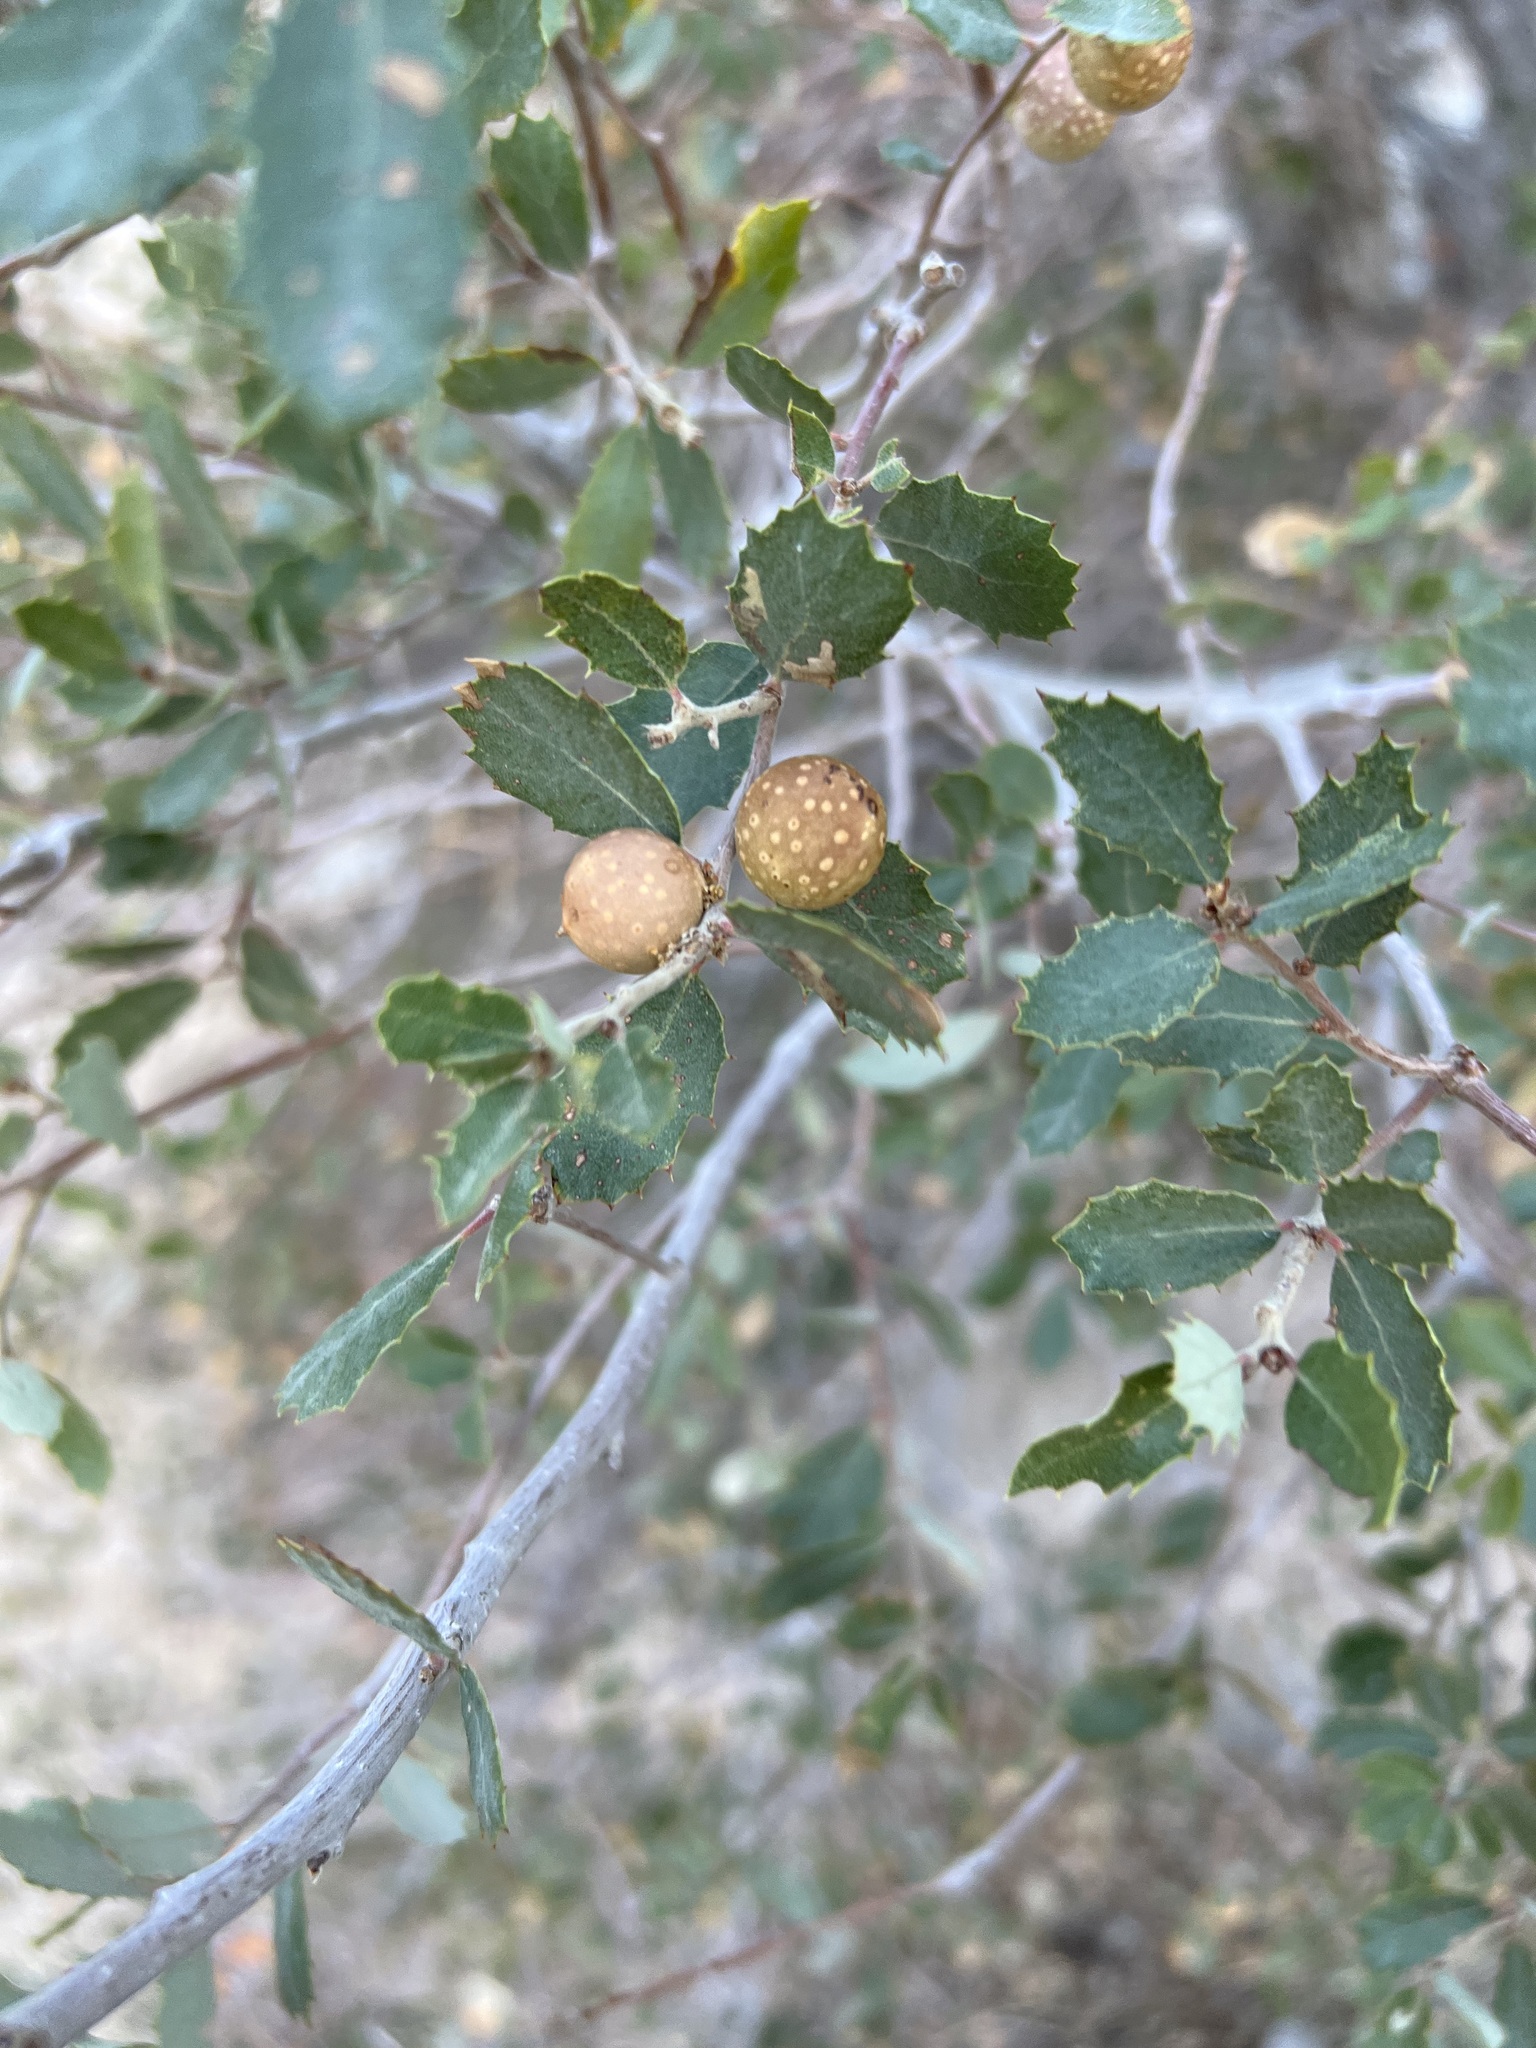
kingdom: Animalia
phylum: Arthropoda
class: Insecta
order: Hymenoptera
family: Cynipidae
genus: Burnettweldia
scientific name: Burnettweldia
